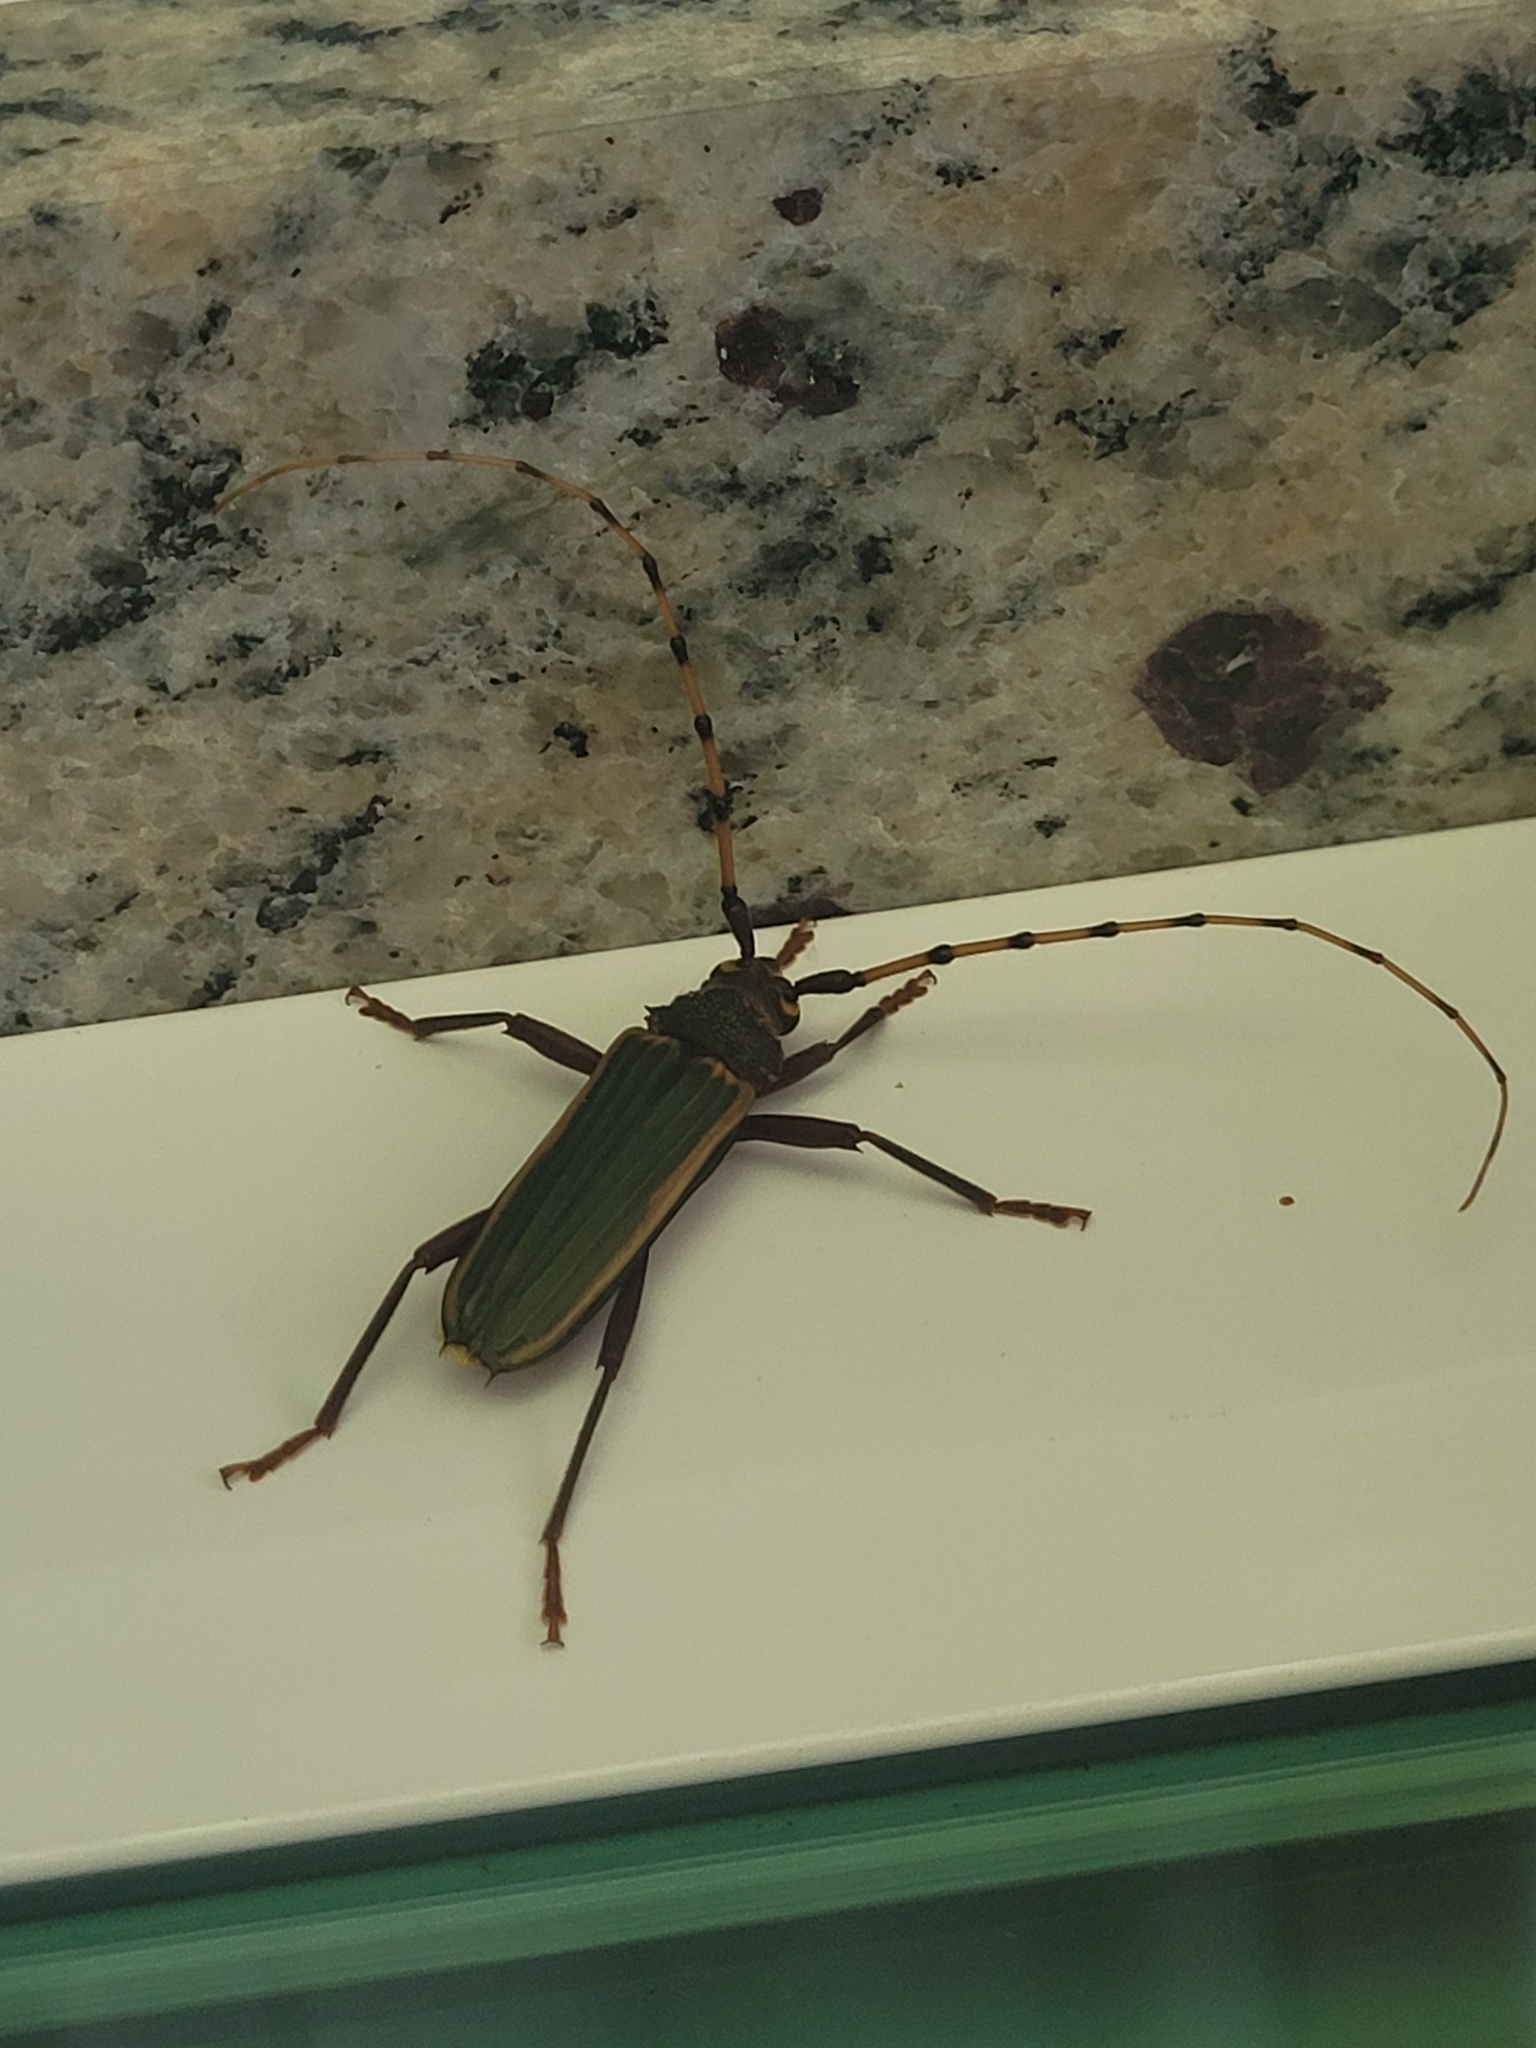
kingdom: Animalia
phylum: Arthropoda
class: Insecta
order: Coleoptera
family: Cerambycidae
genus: Chlorida
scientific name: Chlorida costata
